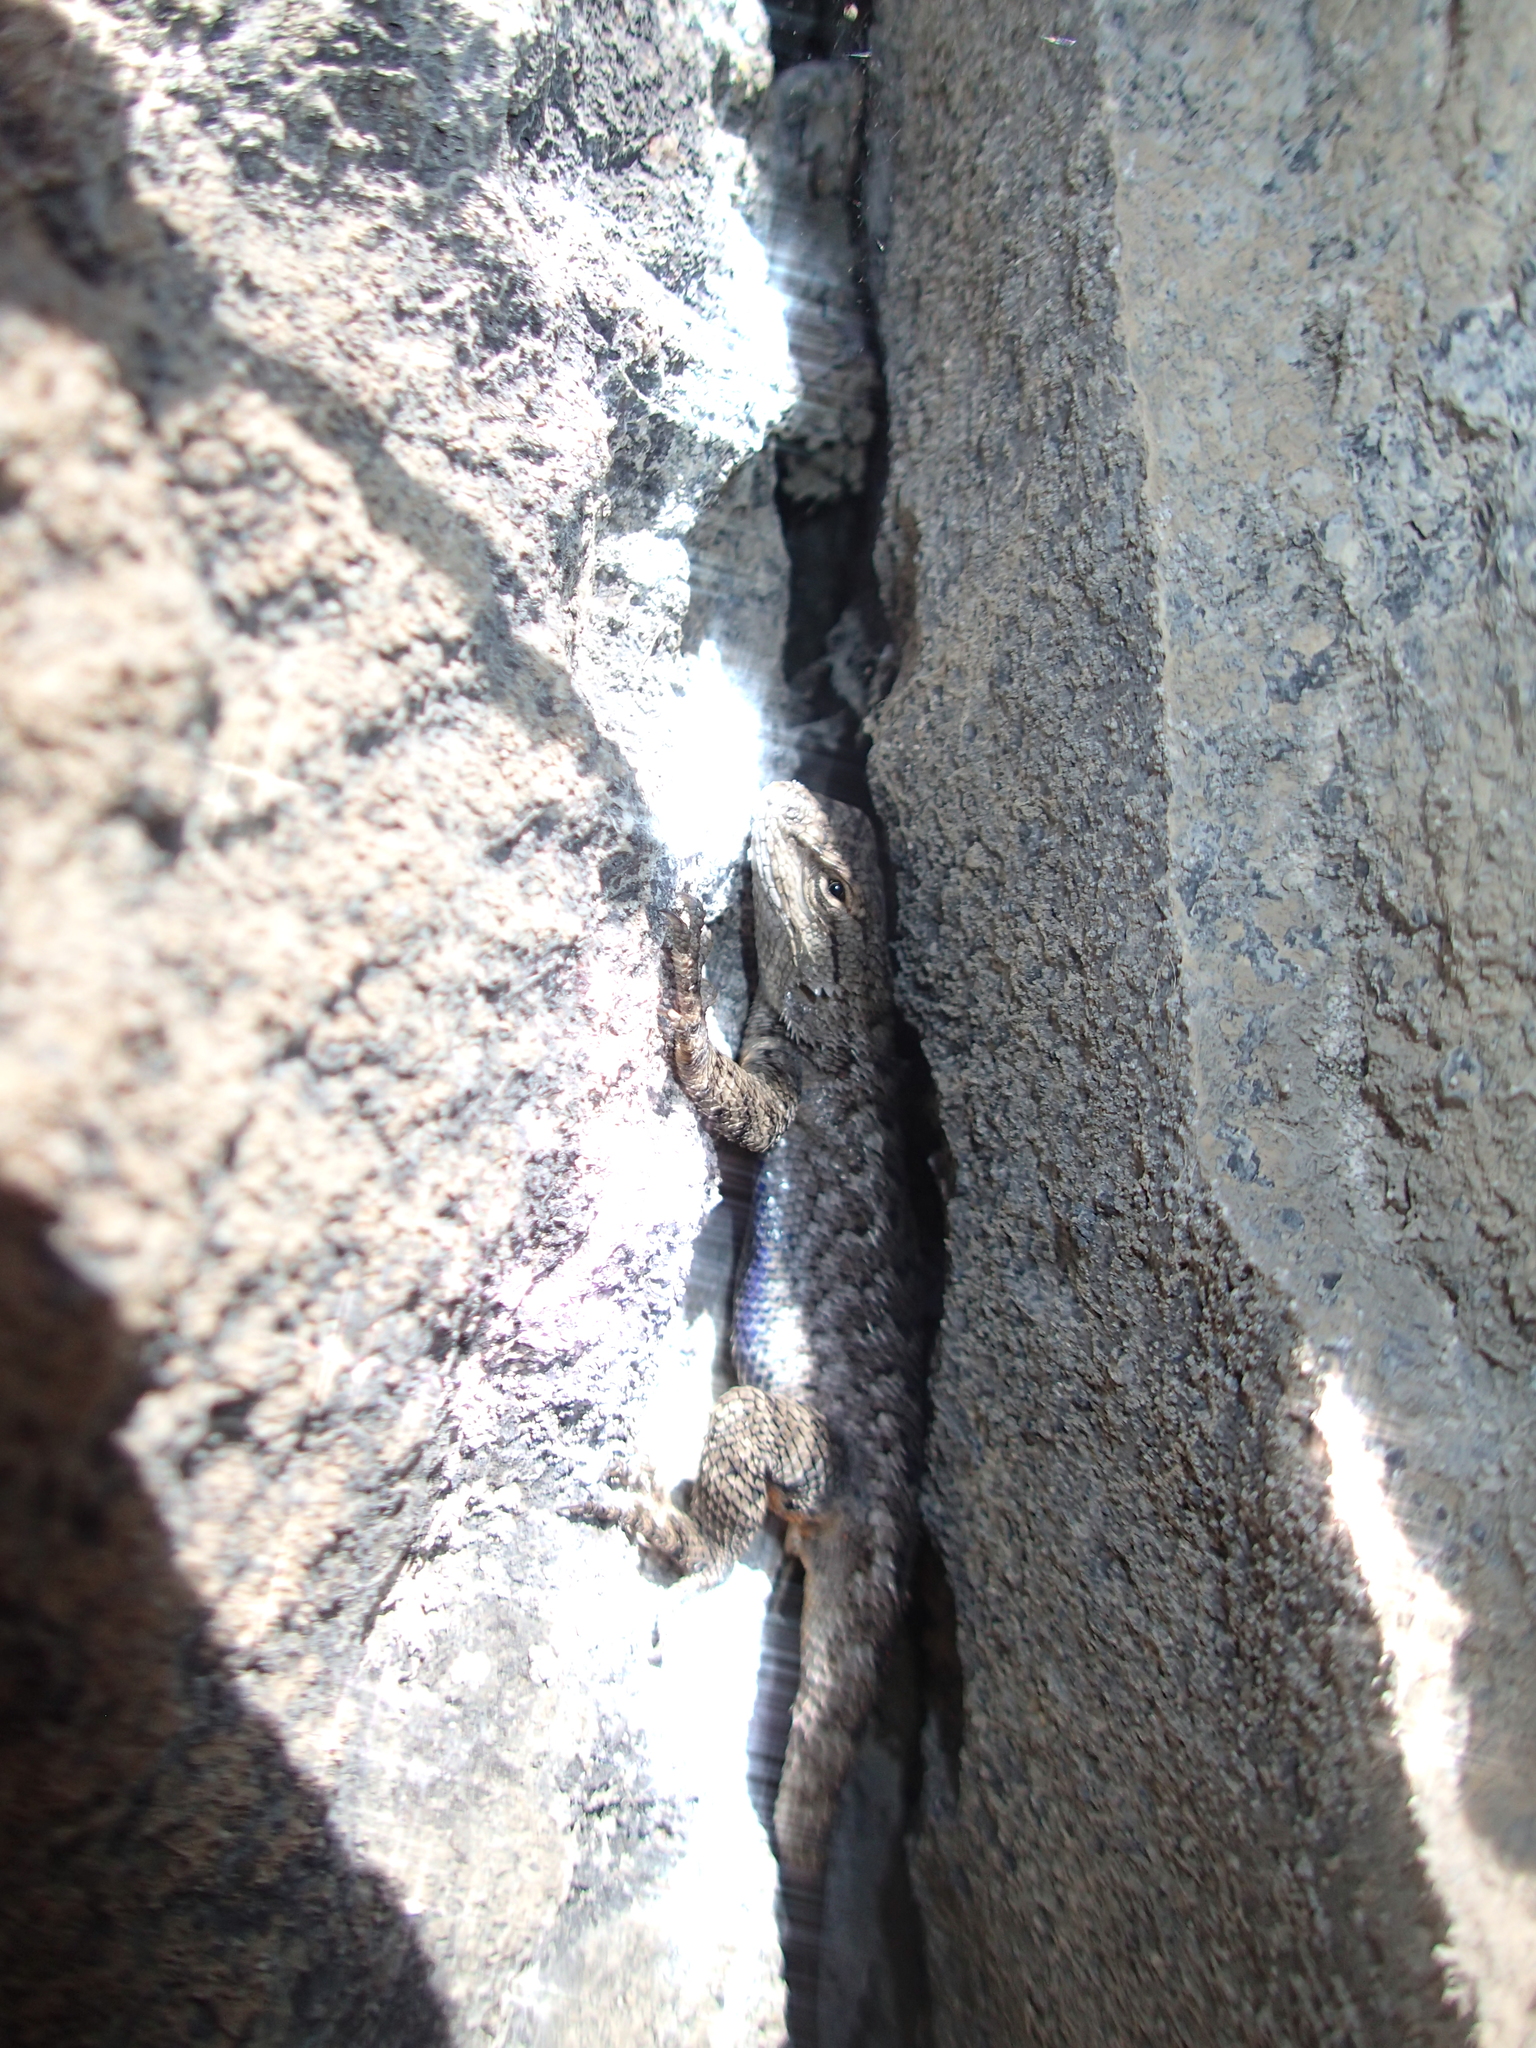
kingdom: Animalia
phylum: Chordata
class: Squamata
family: Phrynosomatidae
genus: Sceloporus
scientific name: Sceloporus occidentalis
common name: Western fence lizard
